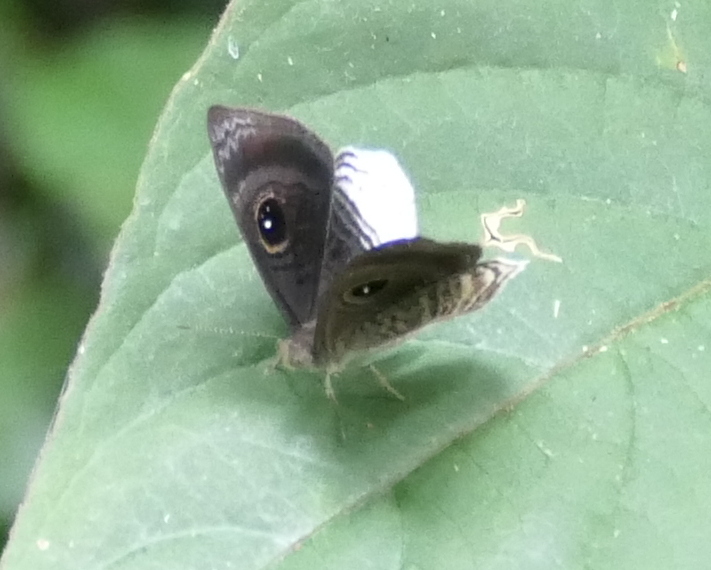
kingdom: Animalia
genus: Mesosemia
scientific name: Mesosemia nyctea
